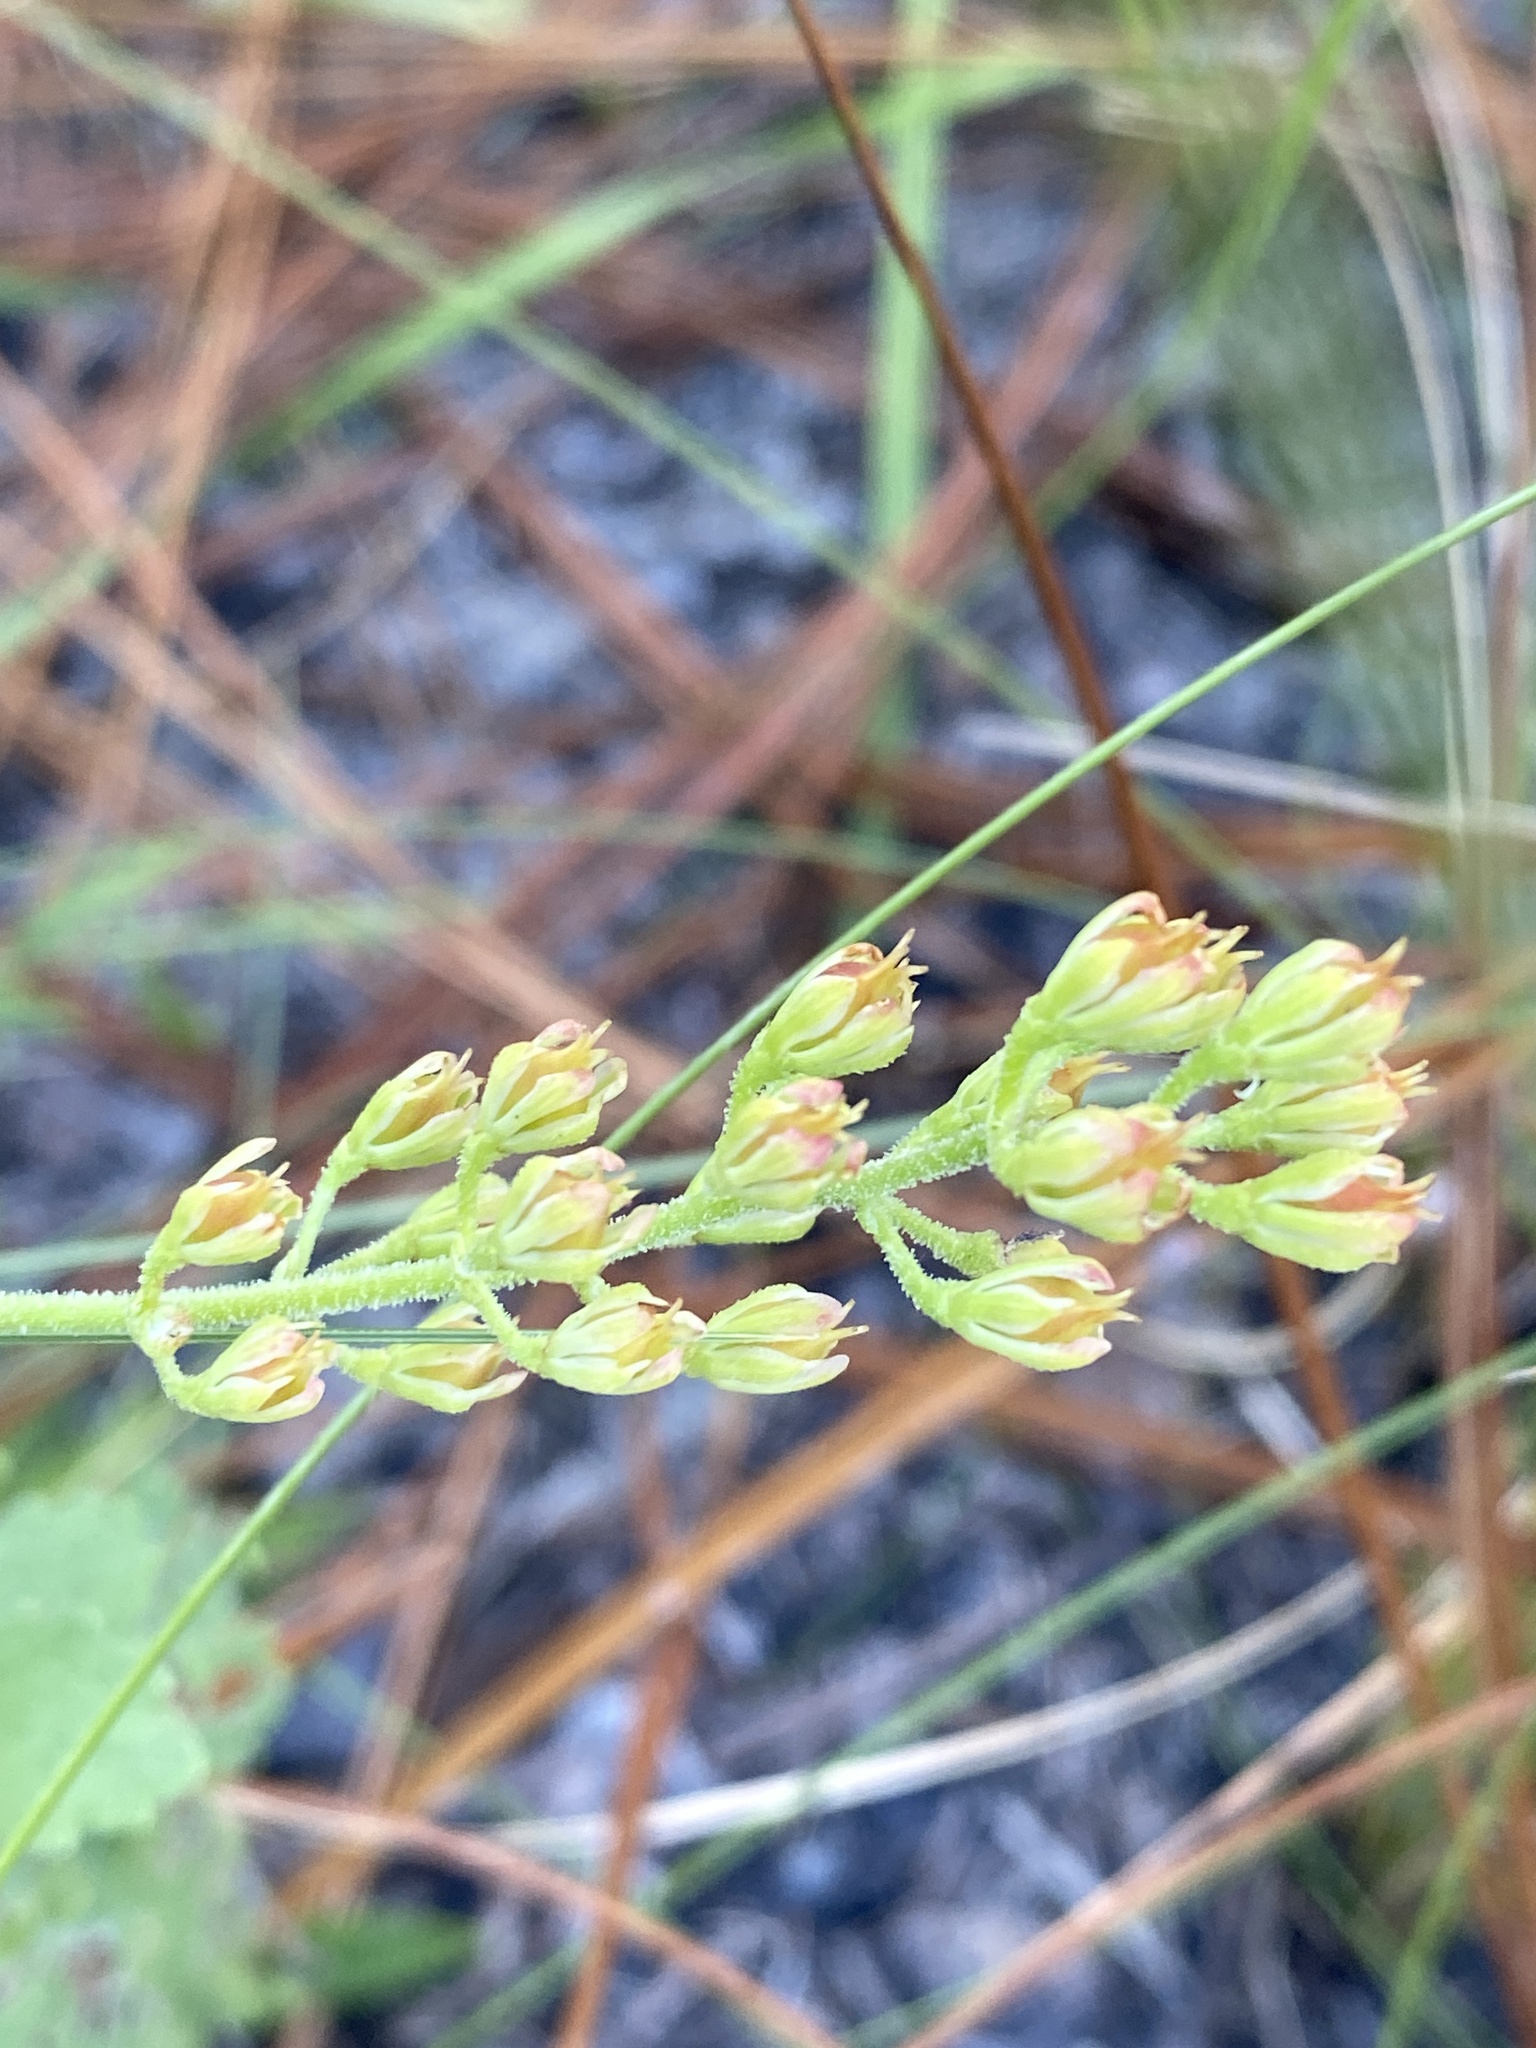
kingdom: Plantae
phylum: Tracheophyta
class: Liliopsida
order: Alismatales
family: Tofieldiaceae
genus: Triantha
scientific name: Triantha racemosa
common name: Coastal false asphodel
